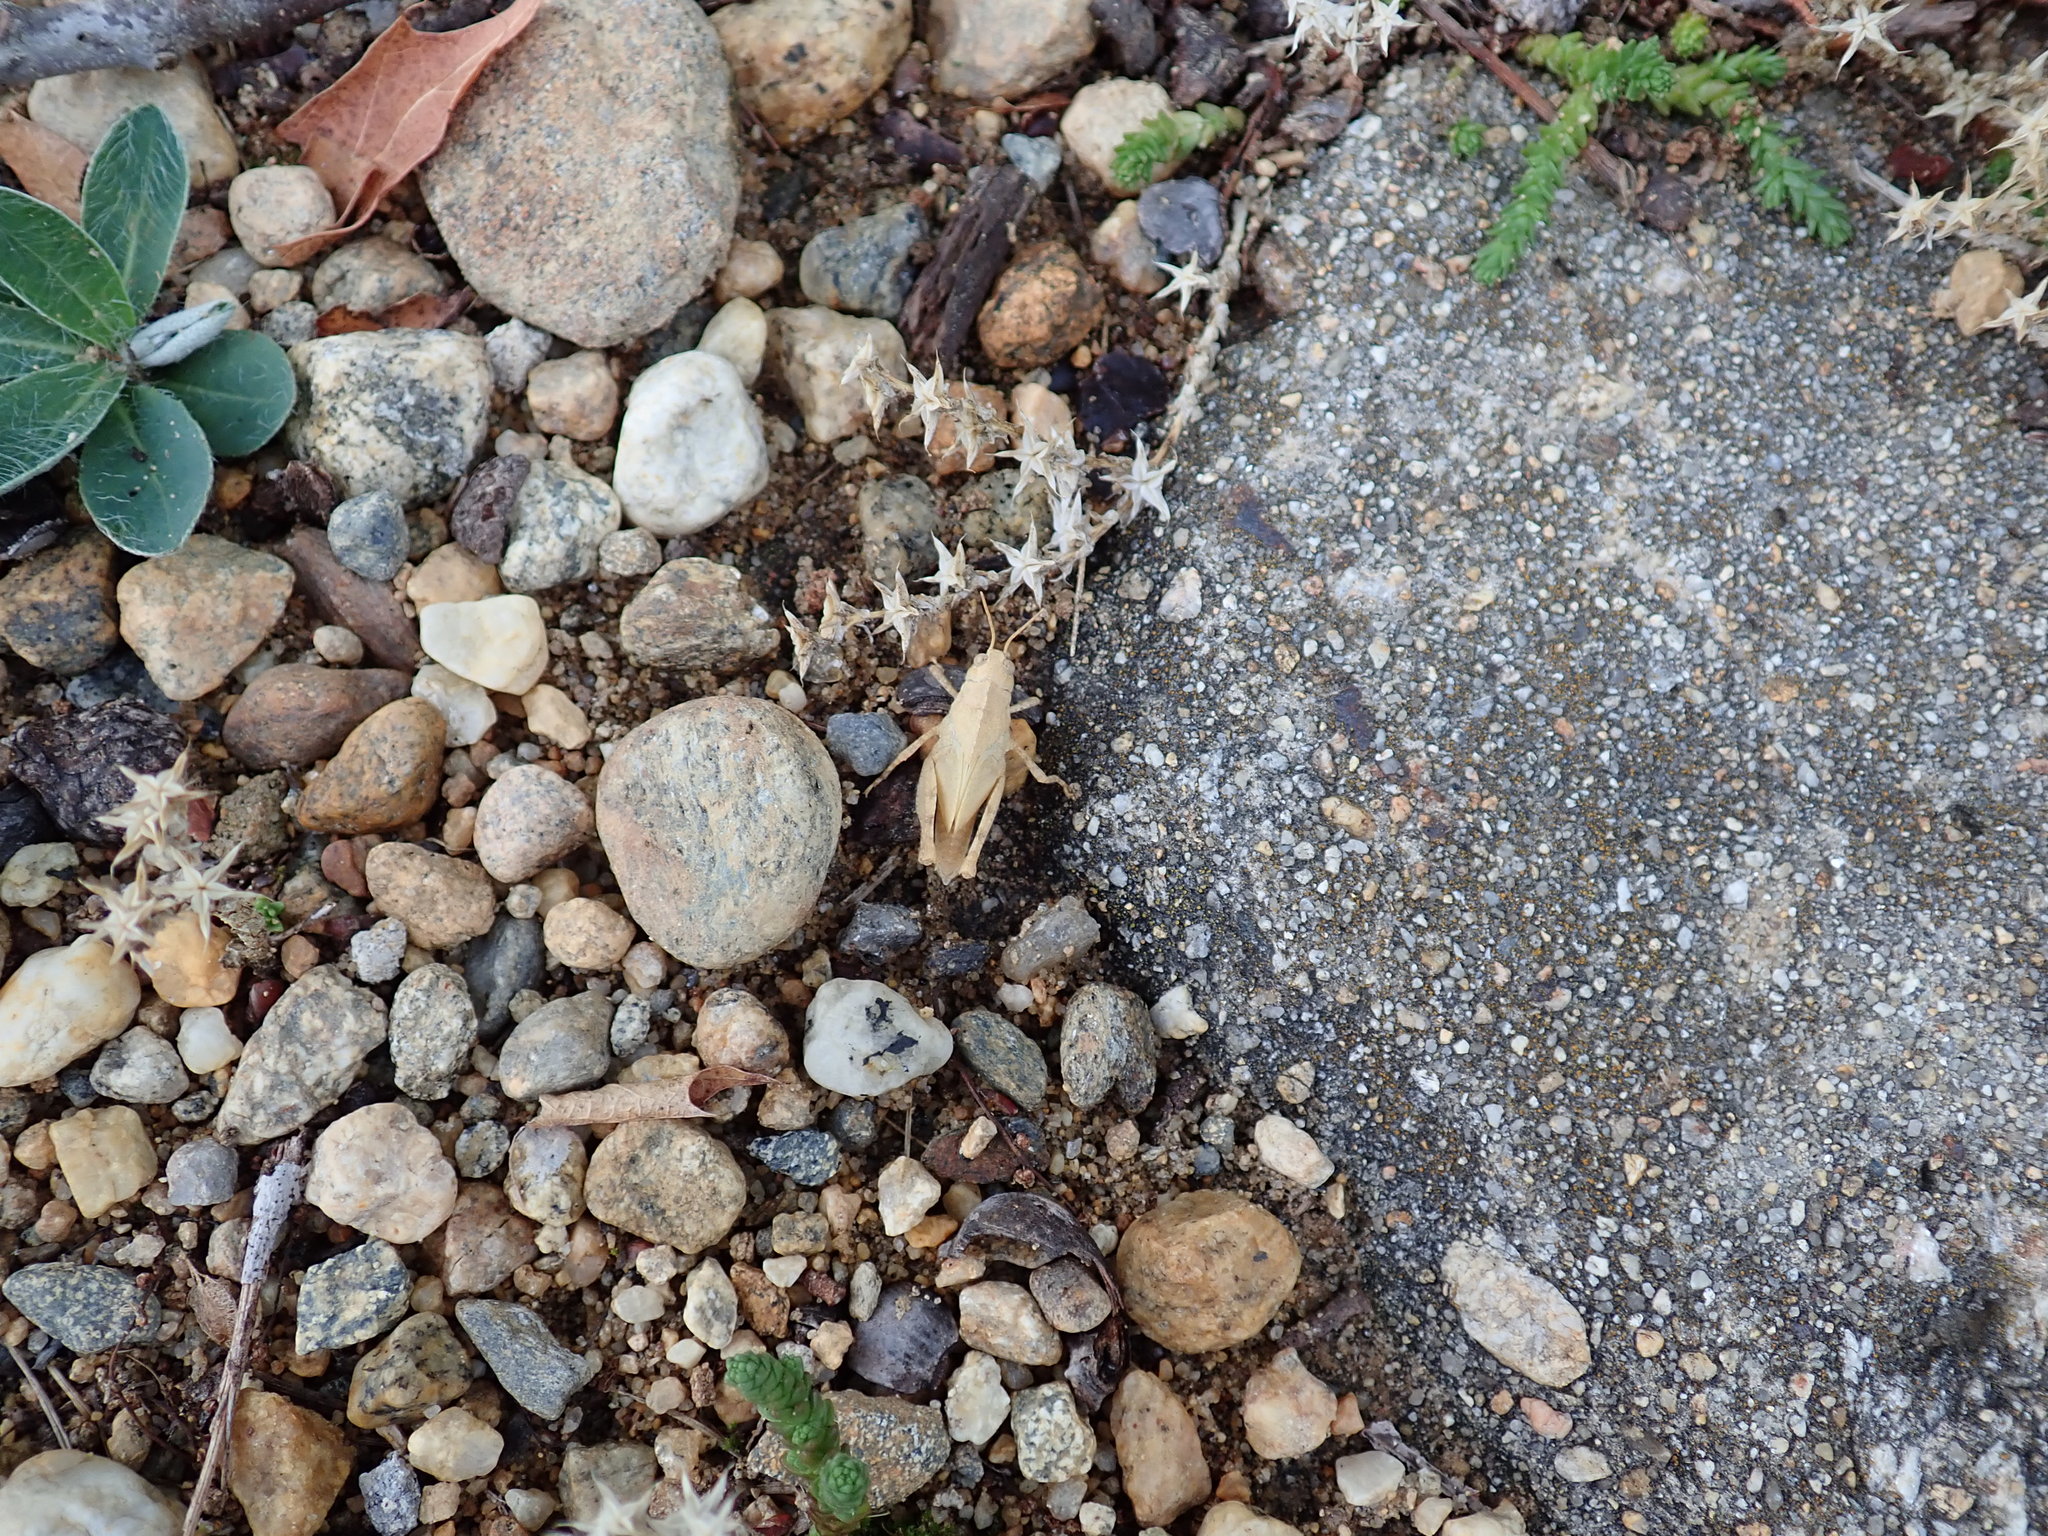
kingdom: Animalia
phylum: Arthropoda
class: Insecta
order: Orthoptera
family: Acrididae
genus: Dissosteira
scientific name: Dissosteira carolina
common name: Carolina grasshopper
